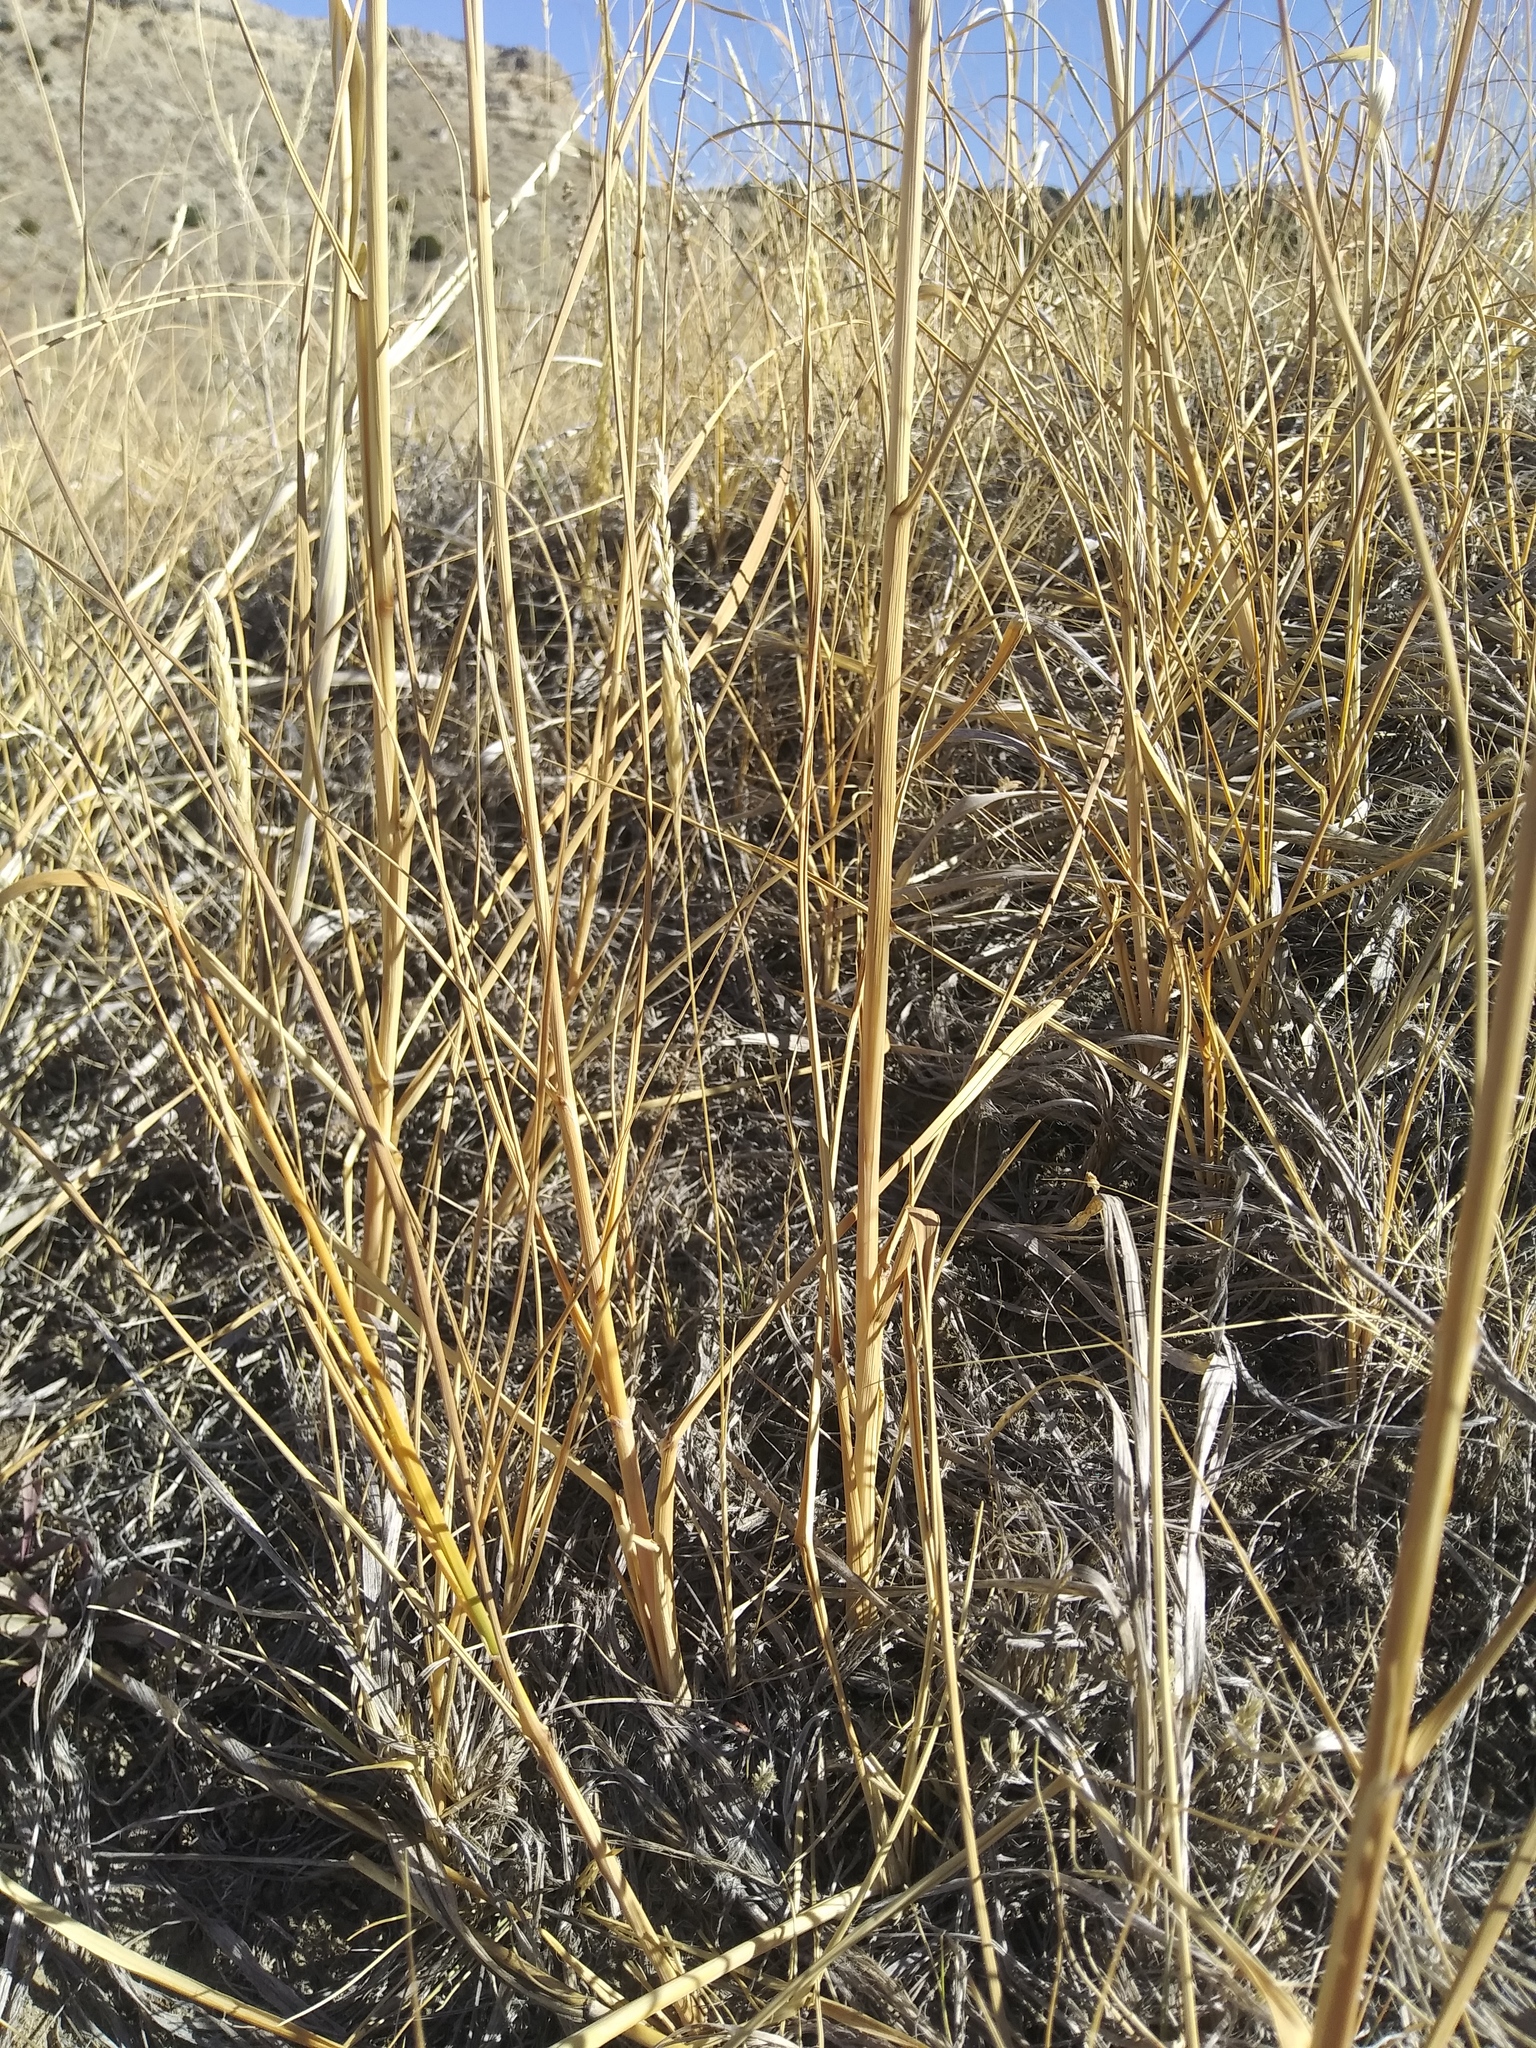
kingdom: Plantae
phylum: Tracheophyta
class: Liliopsida
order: Poales
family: Poaceae
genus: Sporobolus
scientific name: Sporobolus rigidus
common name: Prairie sandreed
